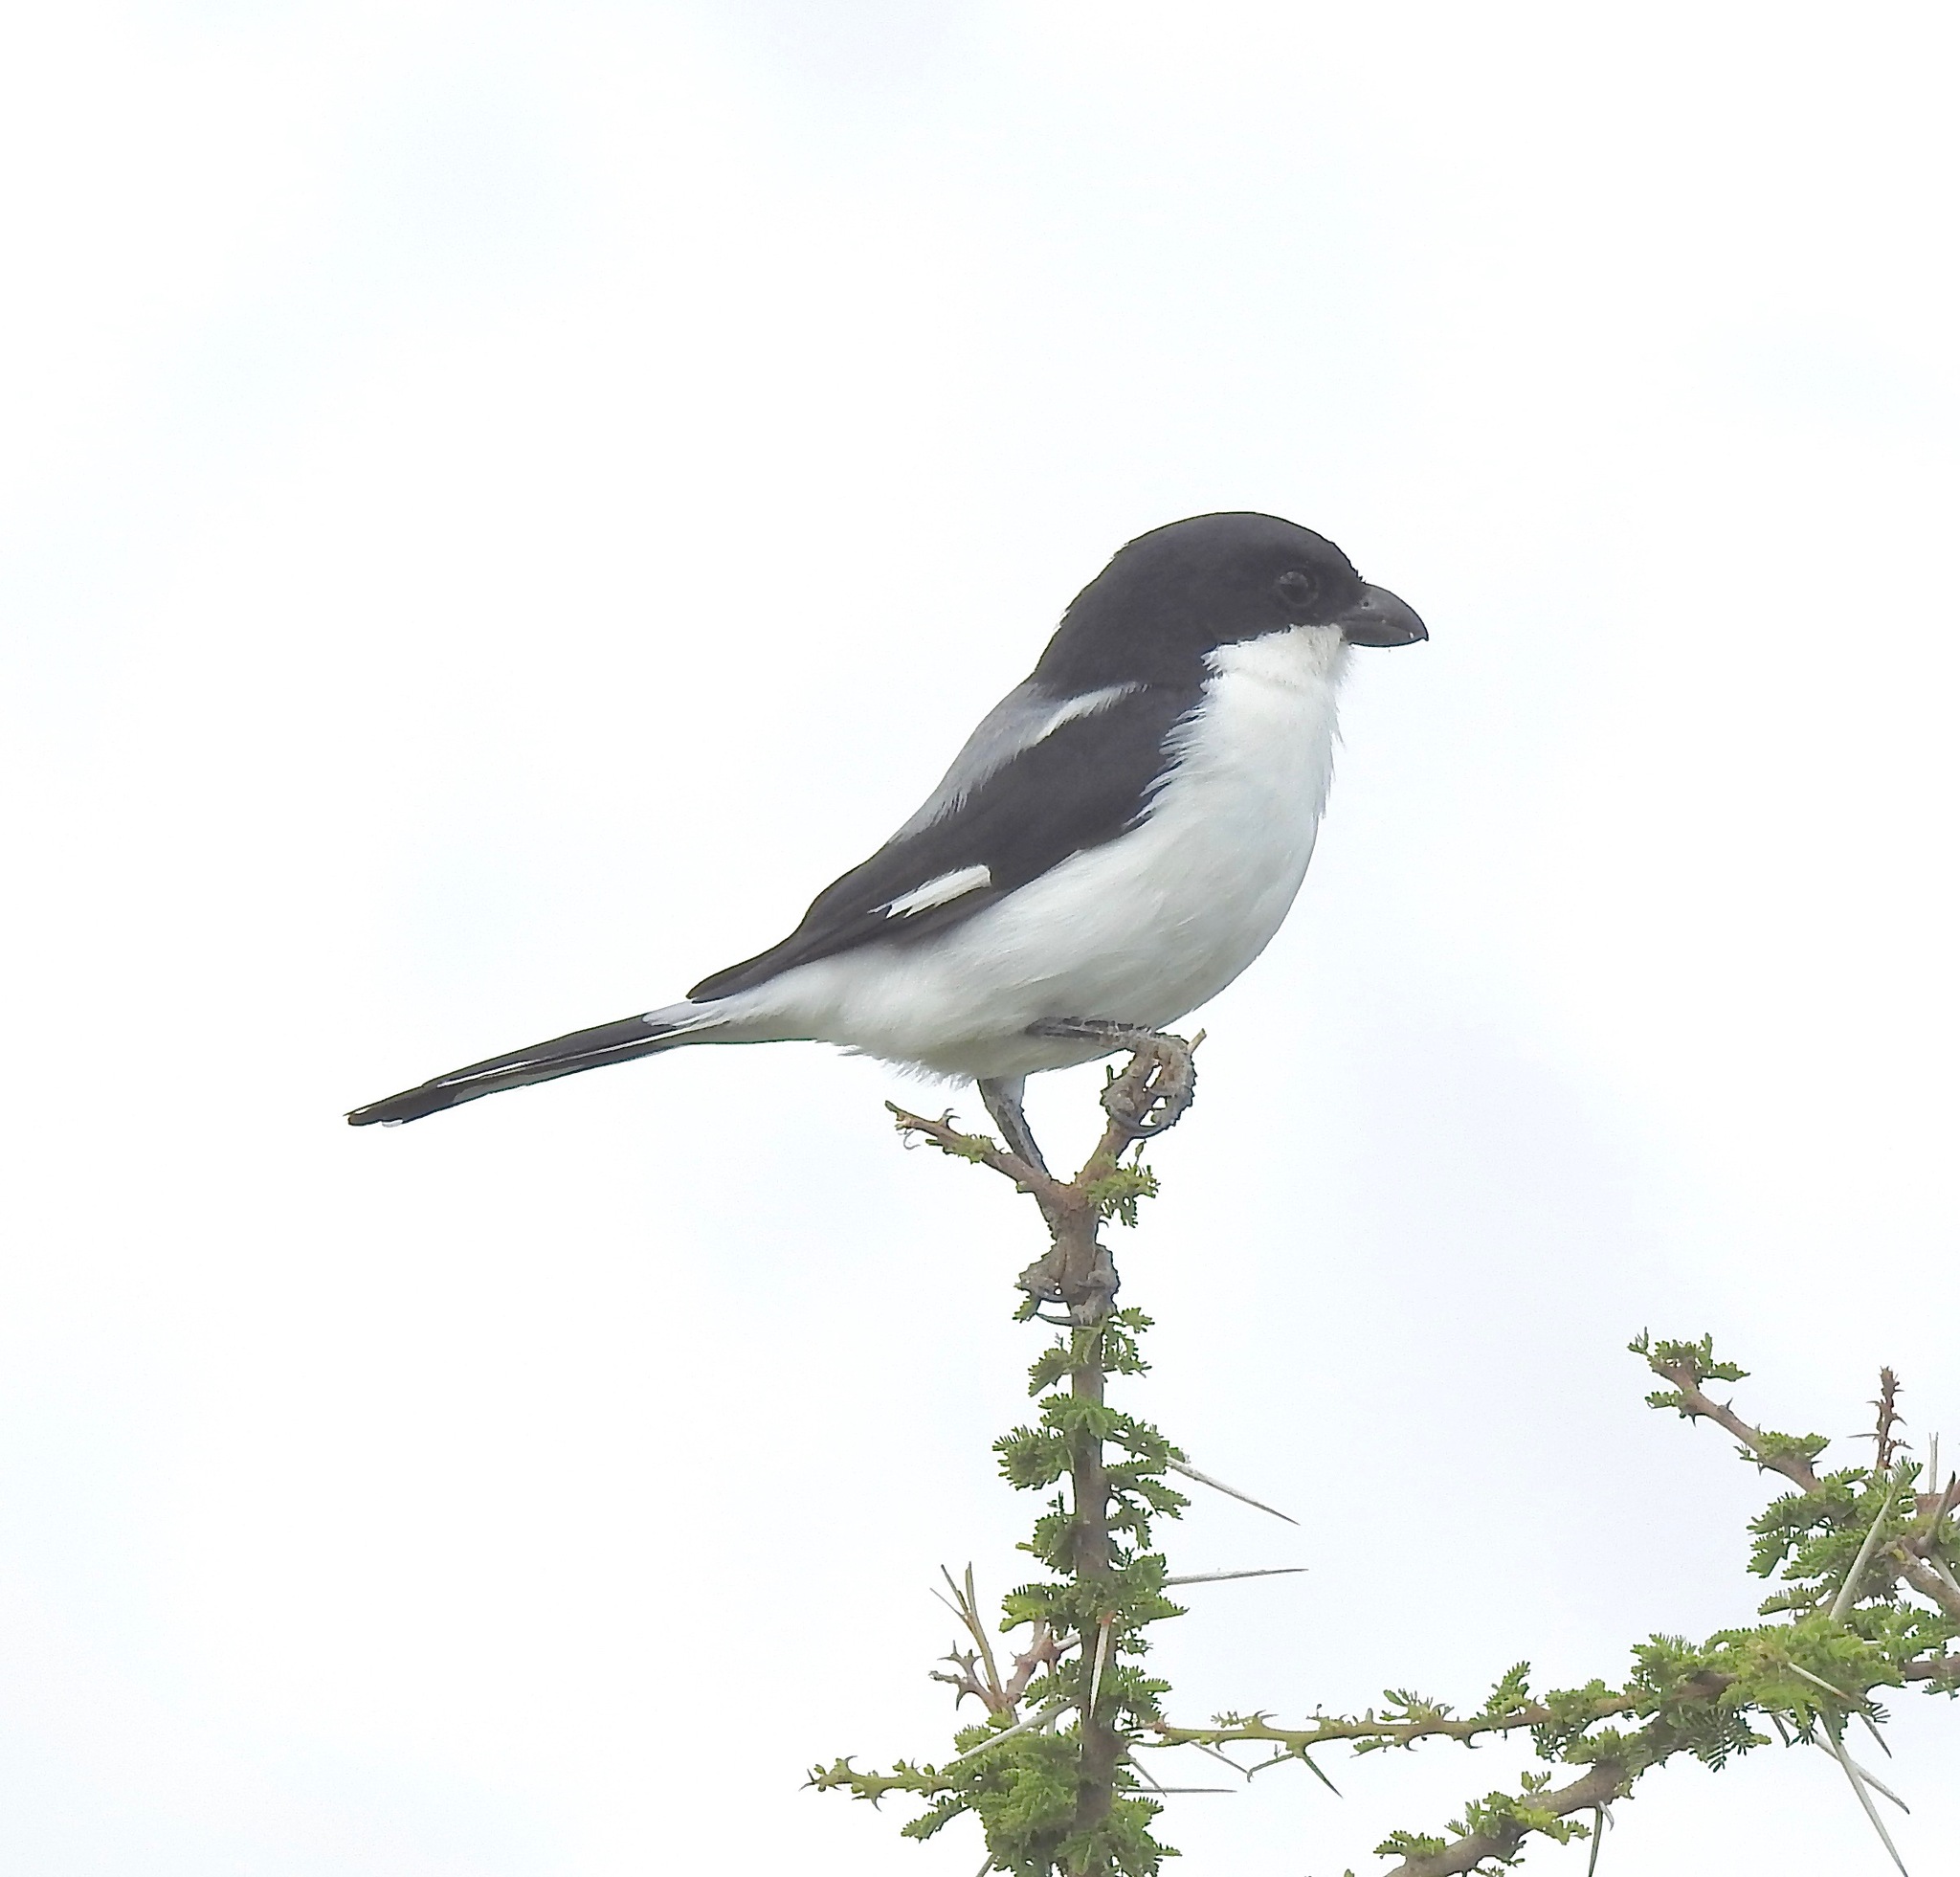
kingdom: Animalia
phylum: Chordata
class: Aves
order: Passeriformes
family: Laniidae
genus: Lanius
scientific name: Lanius dorsalis
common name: Taita fiscal
